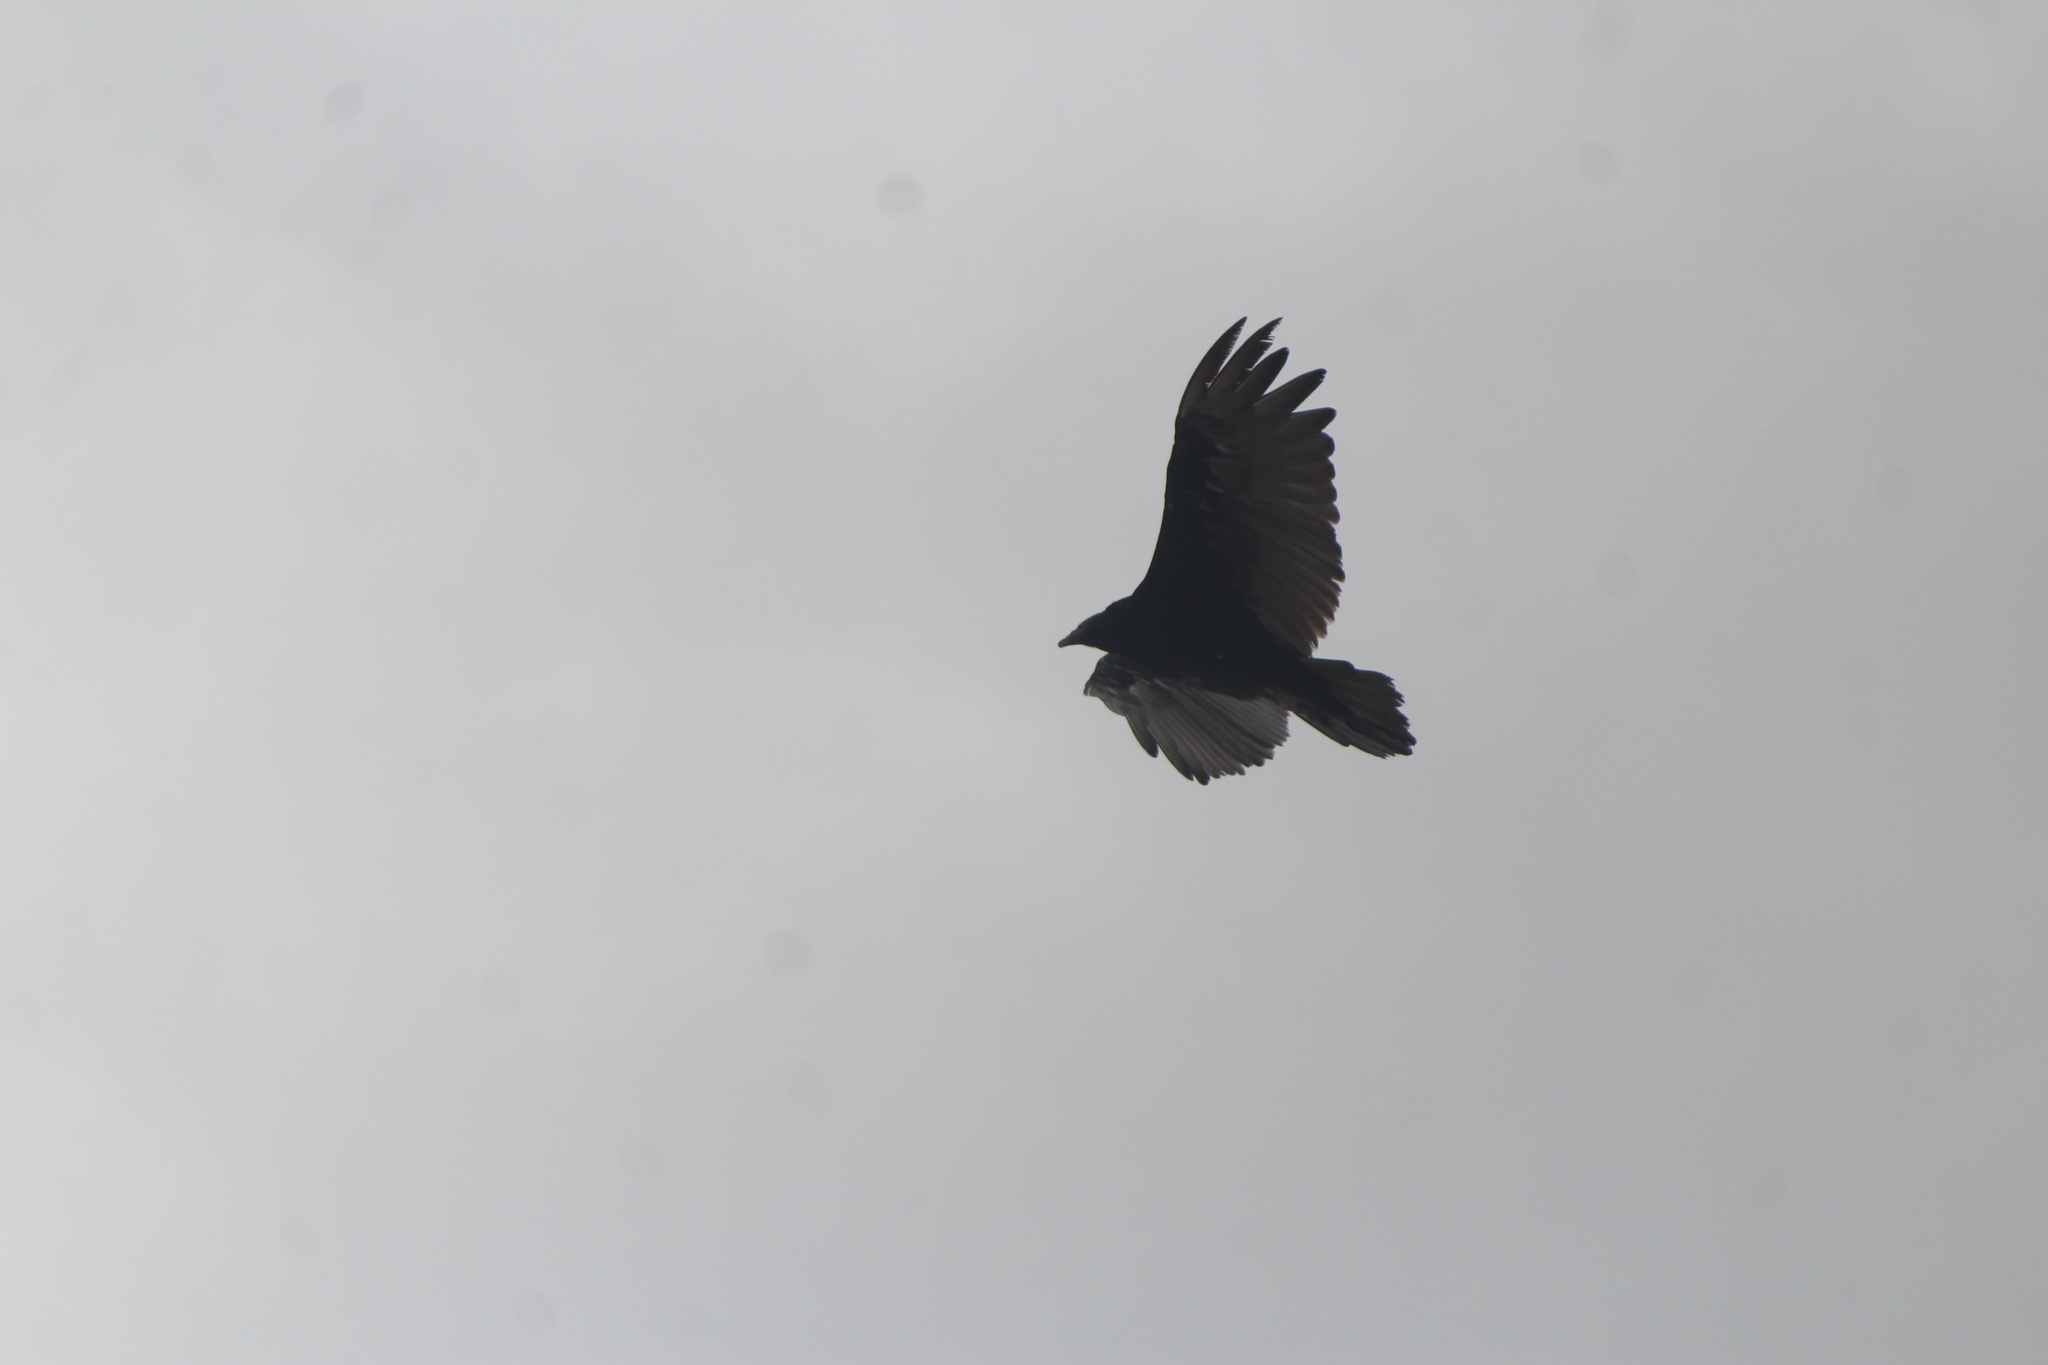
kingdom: Animalia
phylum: Chordata
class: Aves
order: Accipitriformes
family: Cathartidae
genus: Cathartes
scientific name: Cathartes aura
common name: Turkey vulture
